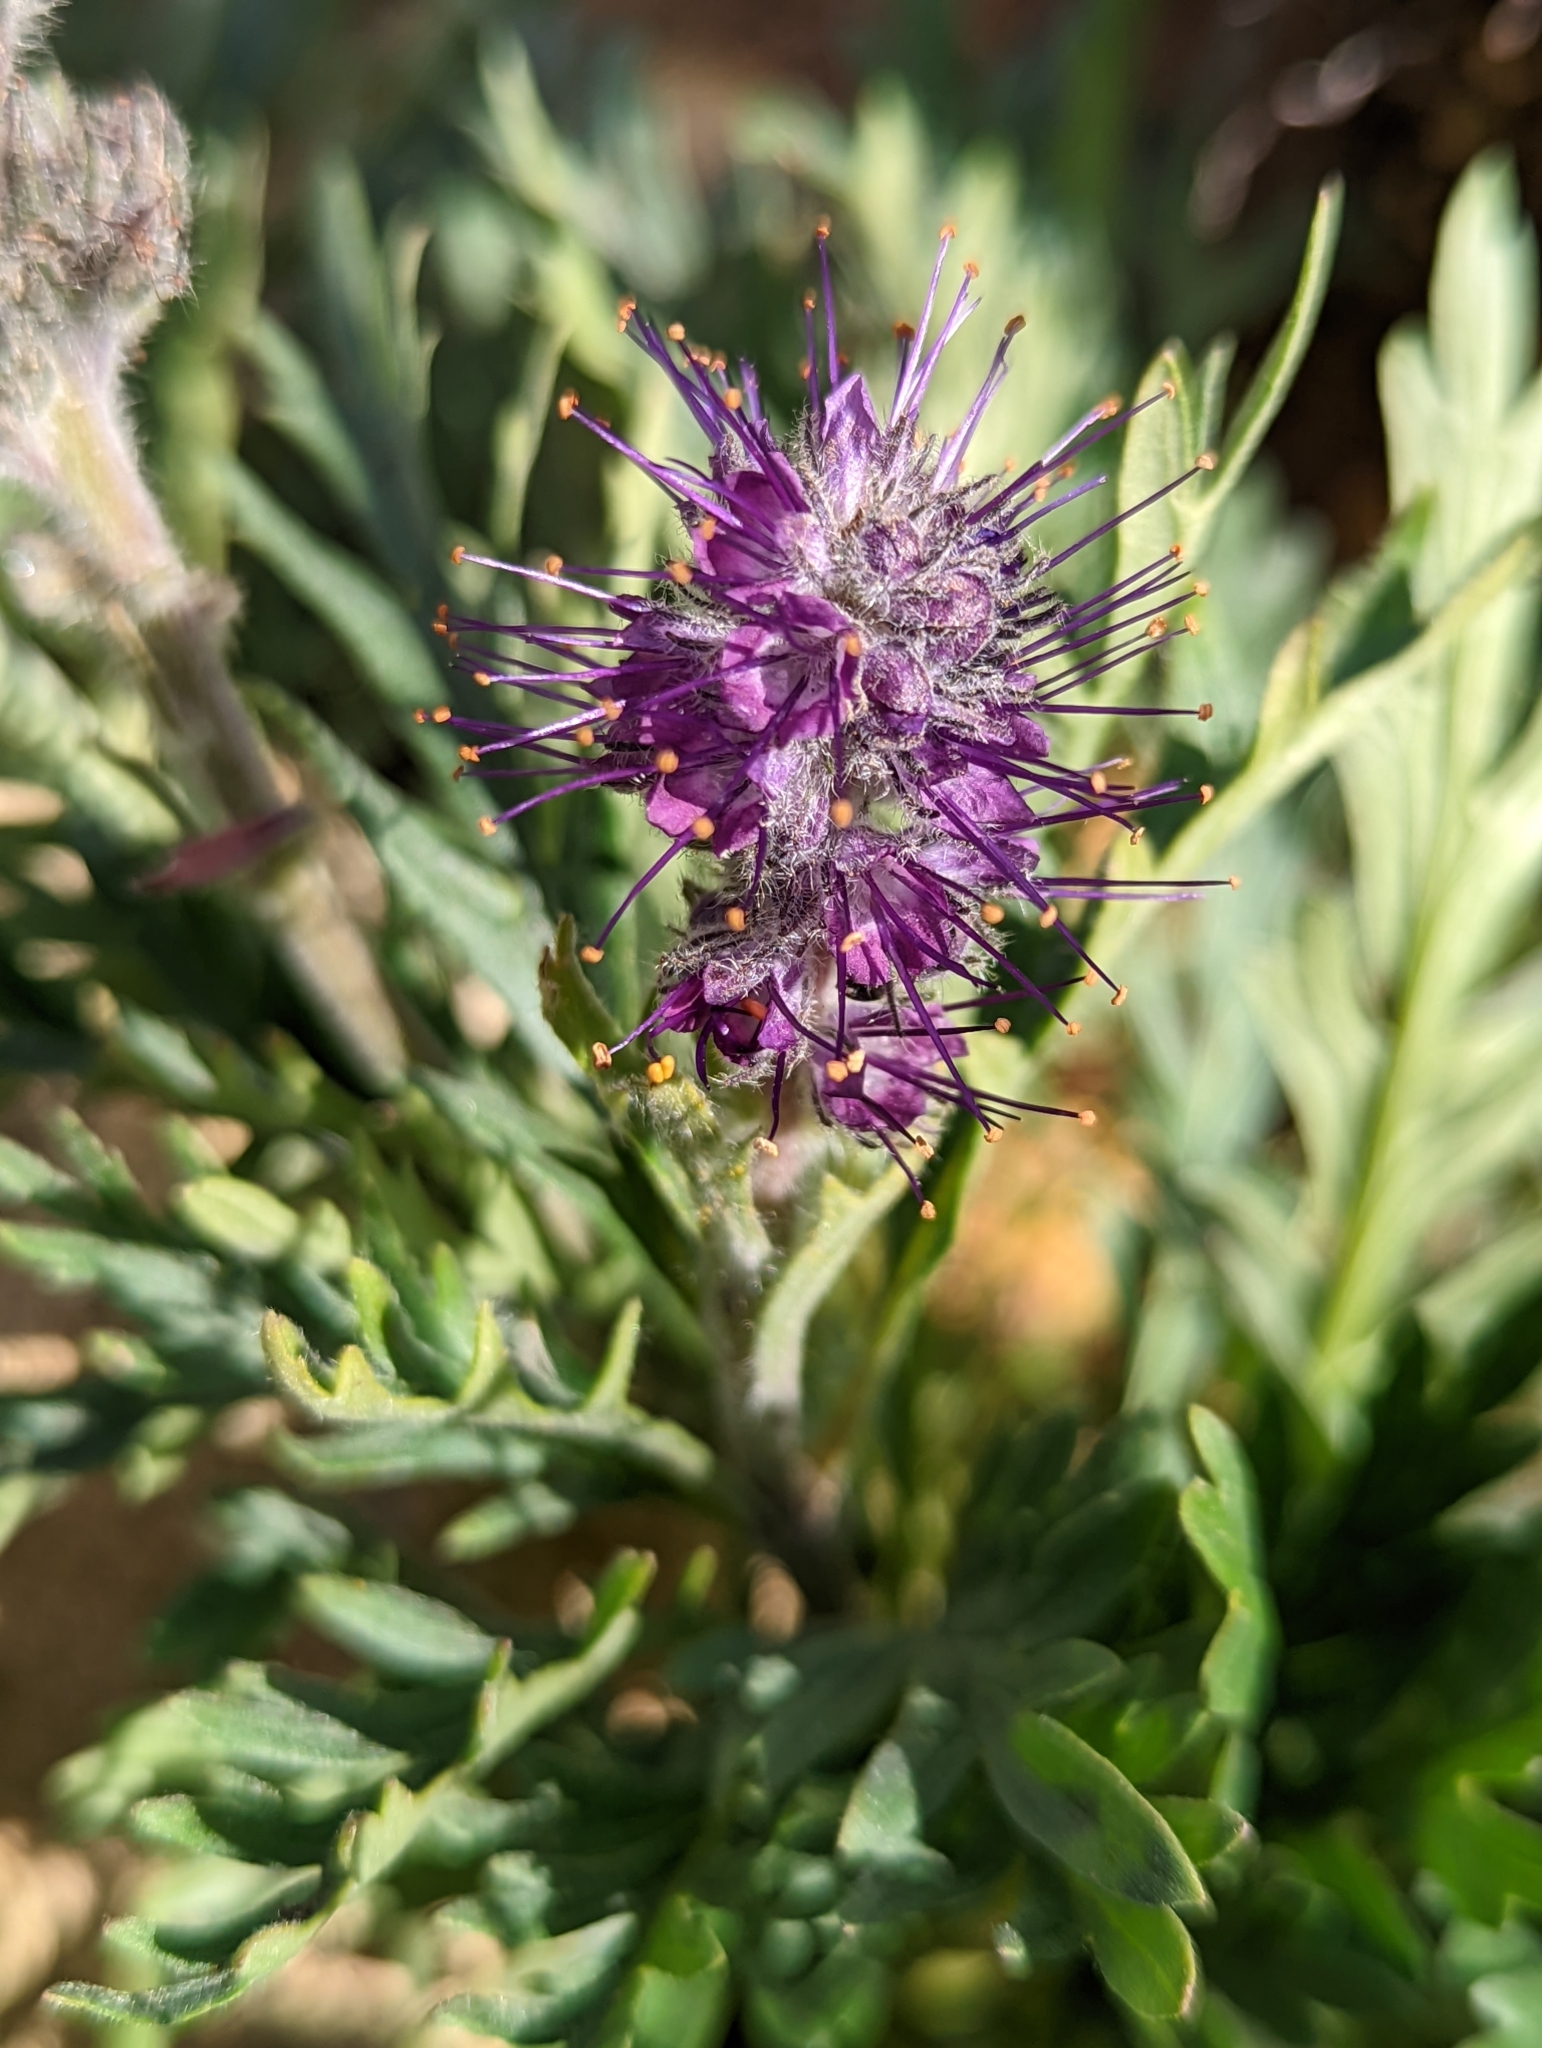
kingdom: Plantae
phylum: Tracheophyta
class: Magnoliopsida
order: Boraginales
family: Hydrophyllaceae
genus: Phacelia
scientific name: Phacelia sericea
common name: Silky phacelia
